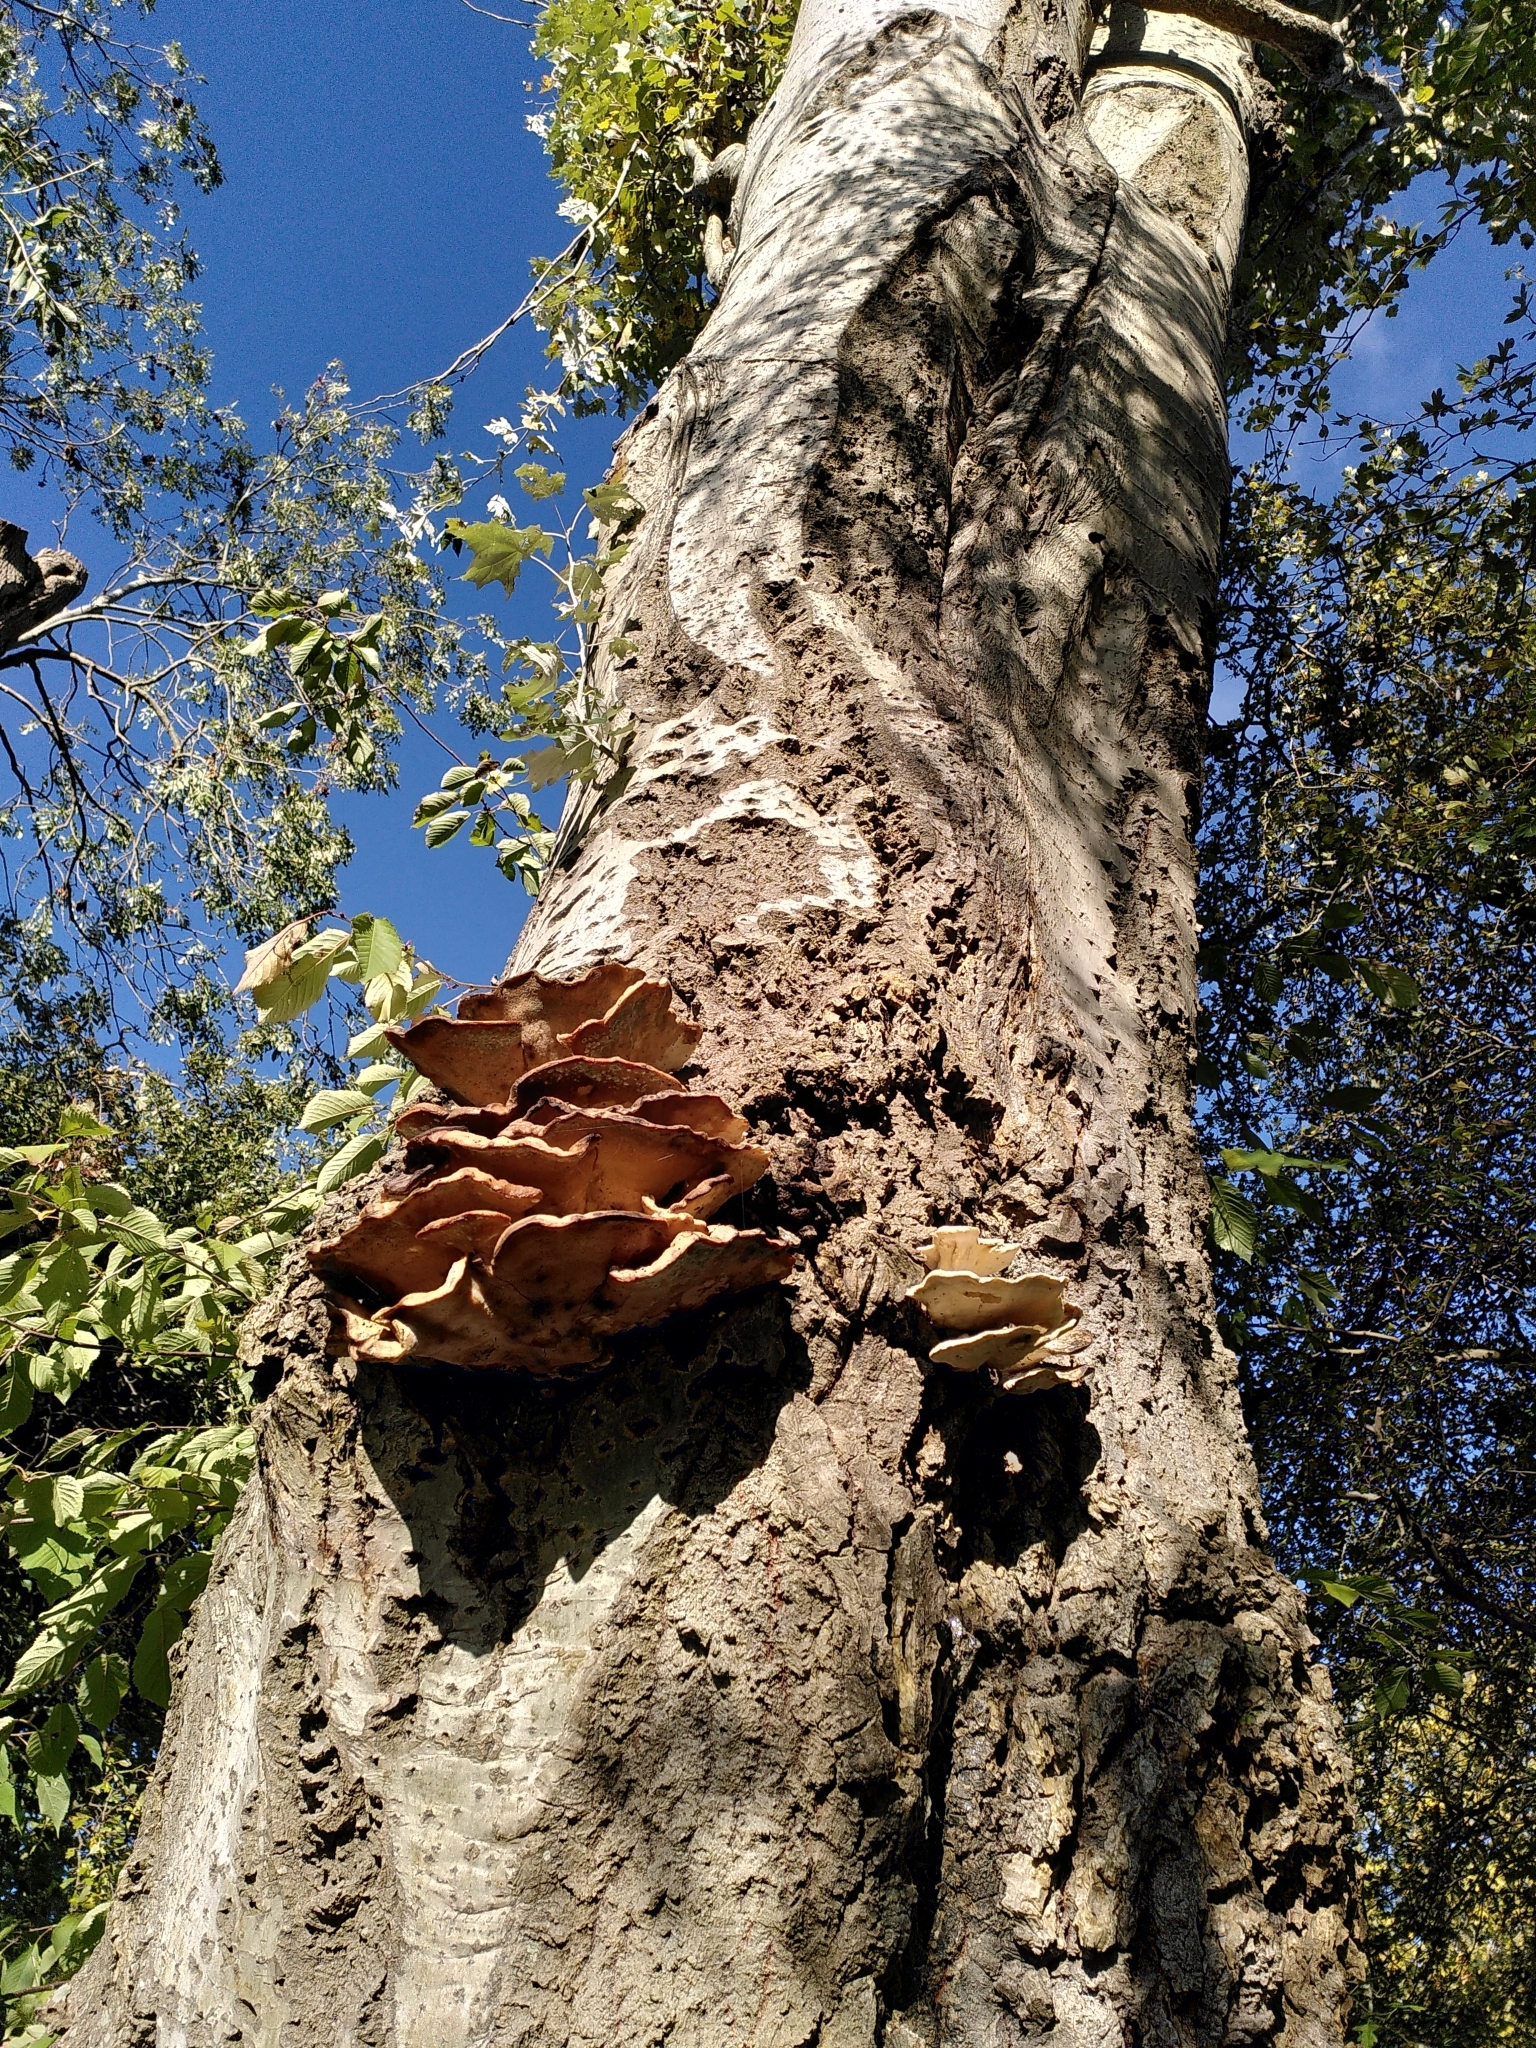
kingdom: Fungi
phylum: Basidiomycota
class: Agaricomycetes
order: Polyporales
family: Laetiporaceae
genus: Laetiporus
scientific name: Laetiporus sulphureus
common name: Chicken of the woods
